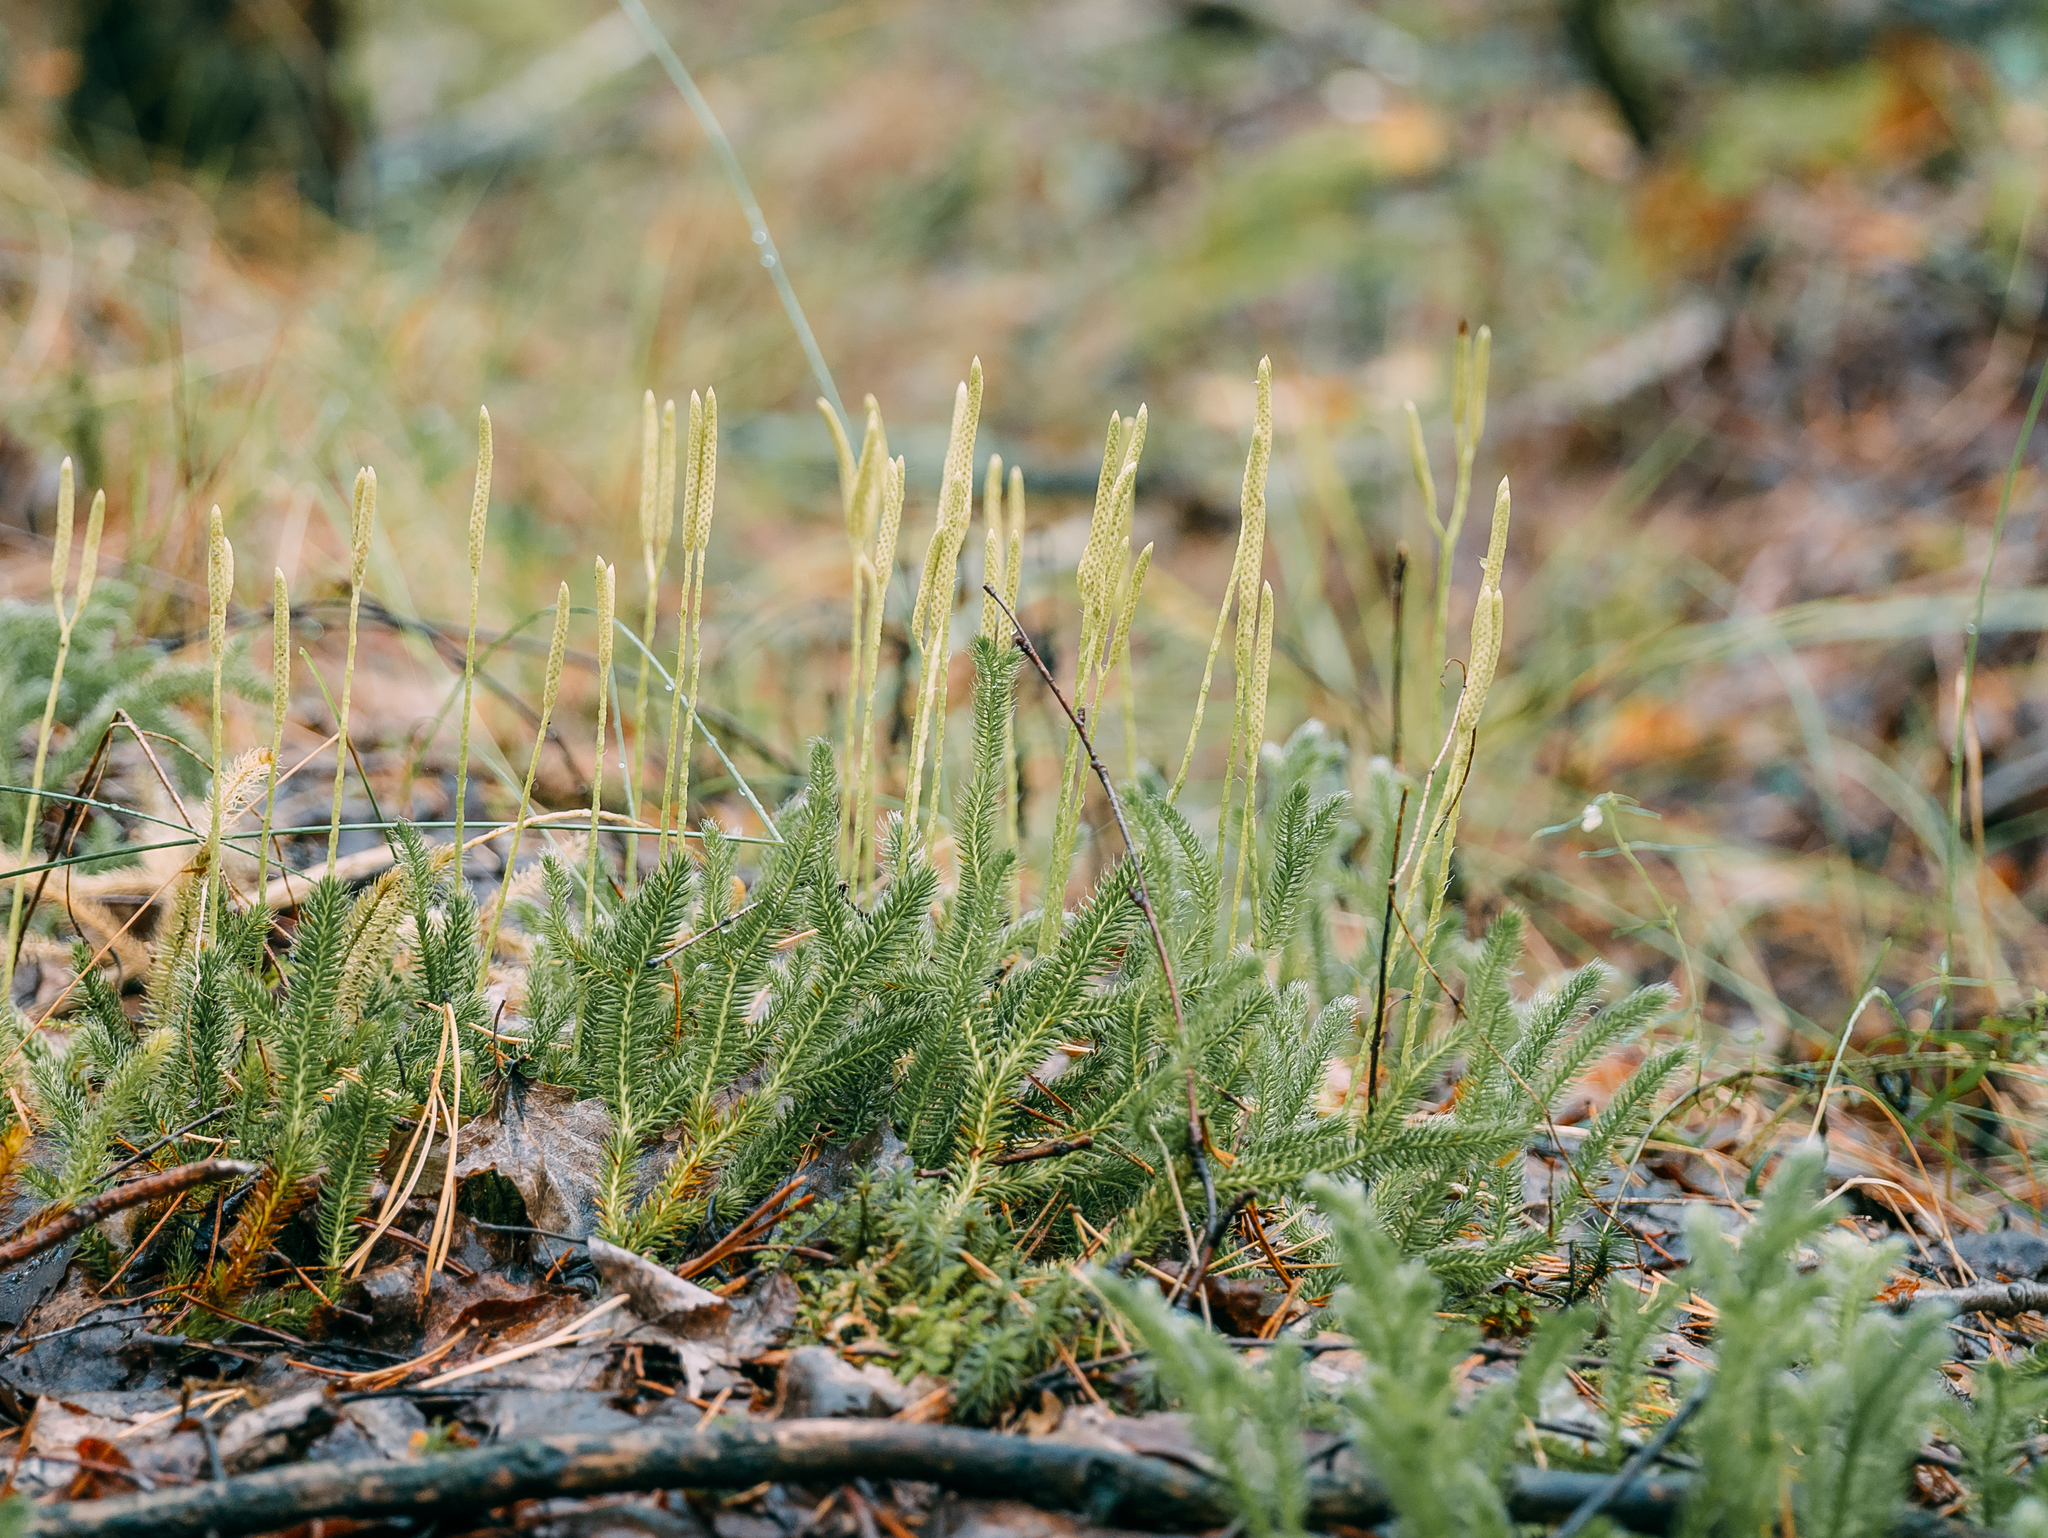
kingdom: Plantae
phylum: Tracheophyta
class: Lycopodiopsida
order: Lycopodiales
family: Lycopodiaceae
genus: Lycopodium
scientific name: Lycopodium clavatum
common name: Stag's-horn clubmoss
